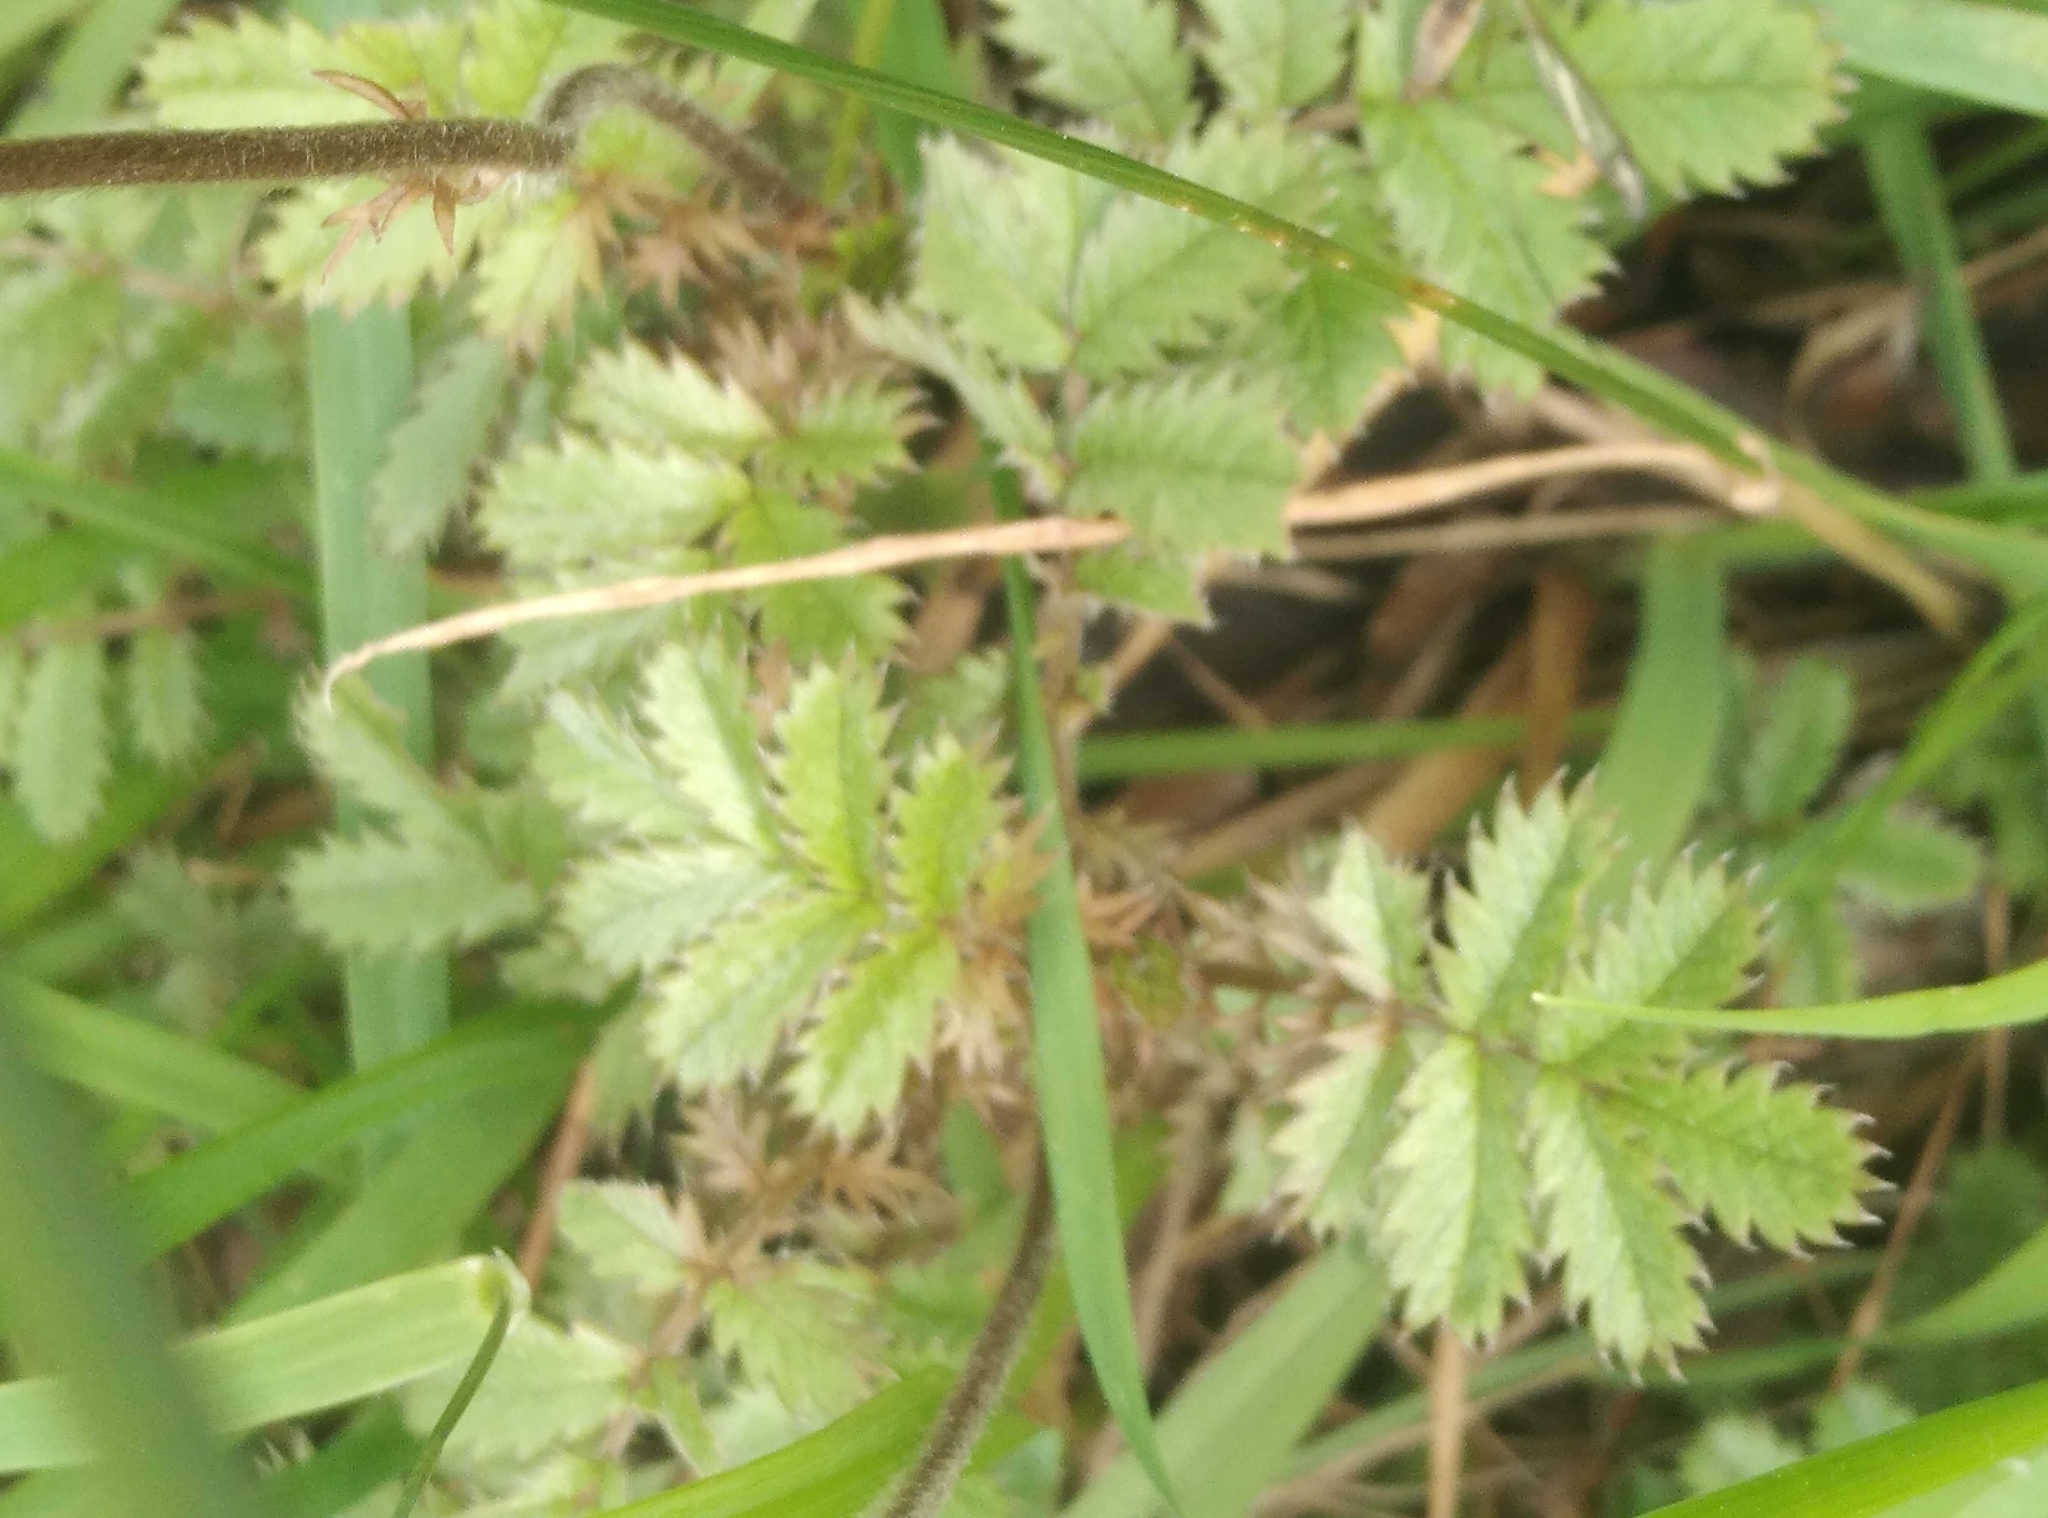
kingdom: Plantae
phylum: Tracheophyta
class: Magnoliopsida
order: Rosales
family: Rosaceae
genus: Acaena
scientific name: Acaena anserinifolia
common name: Bronze pirri-pirri-bur
